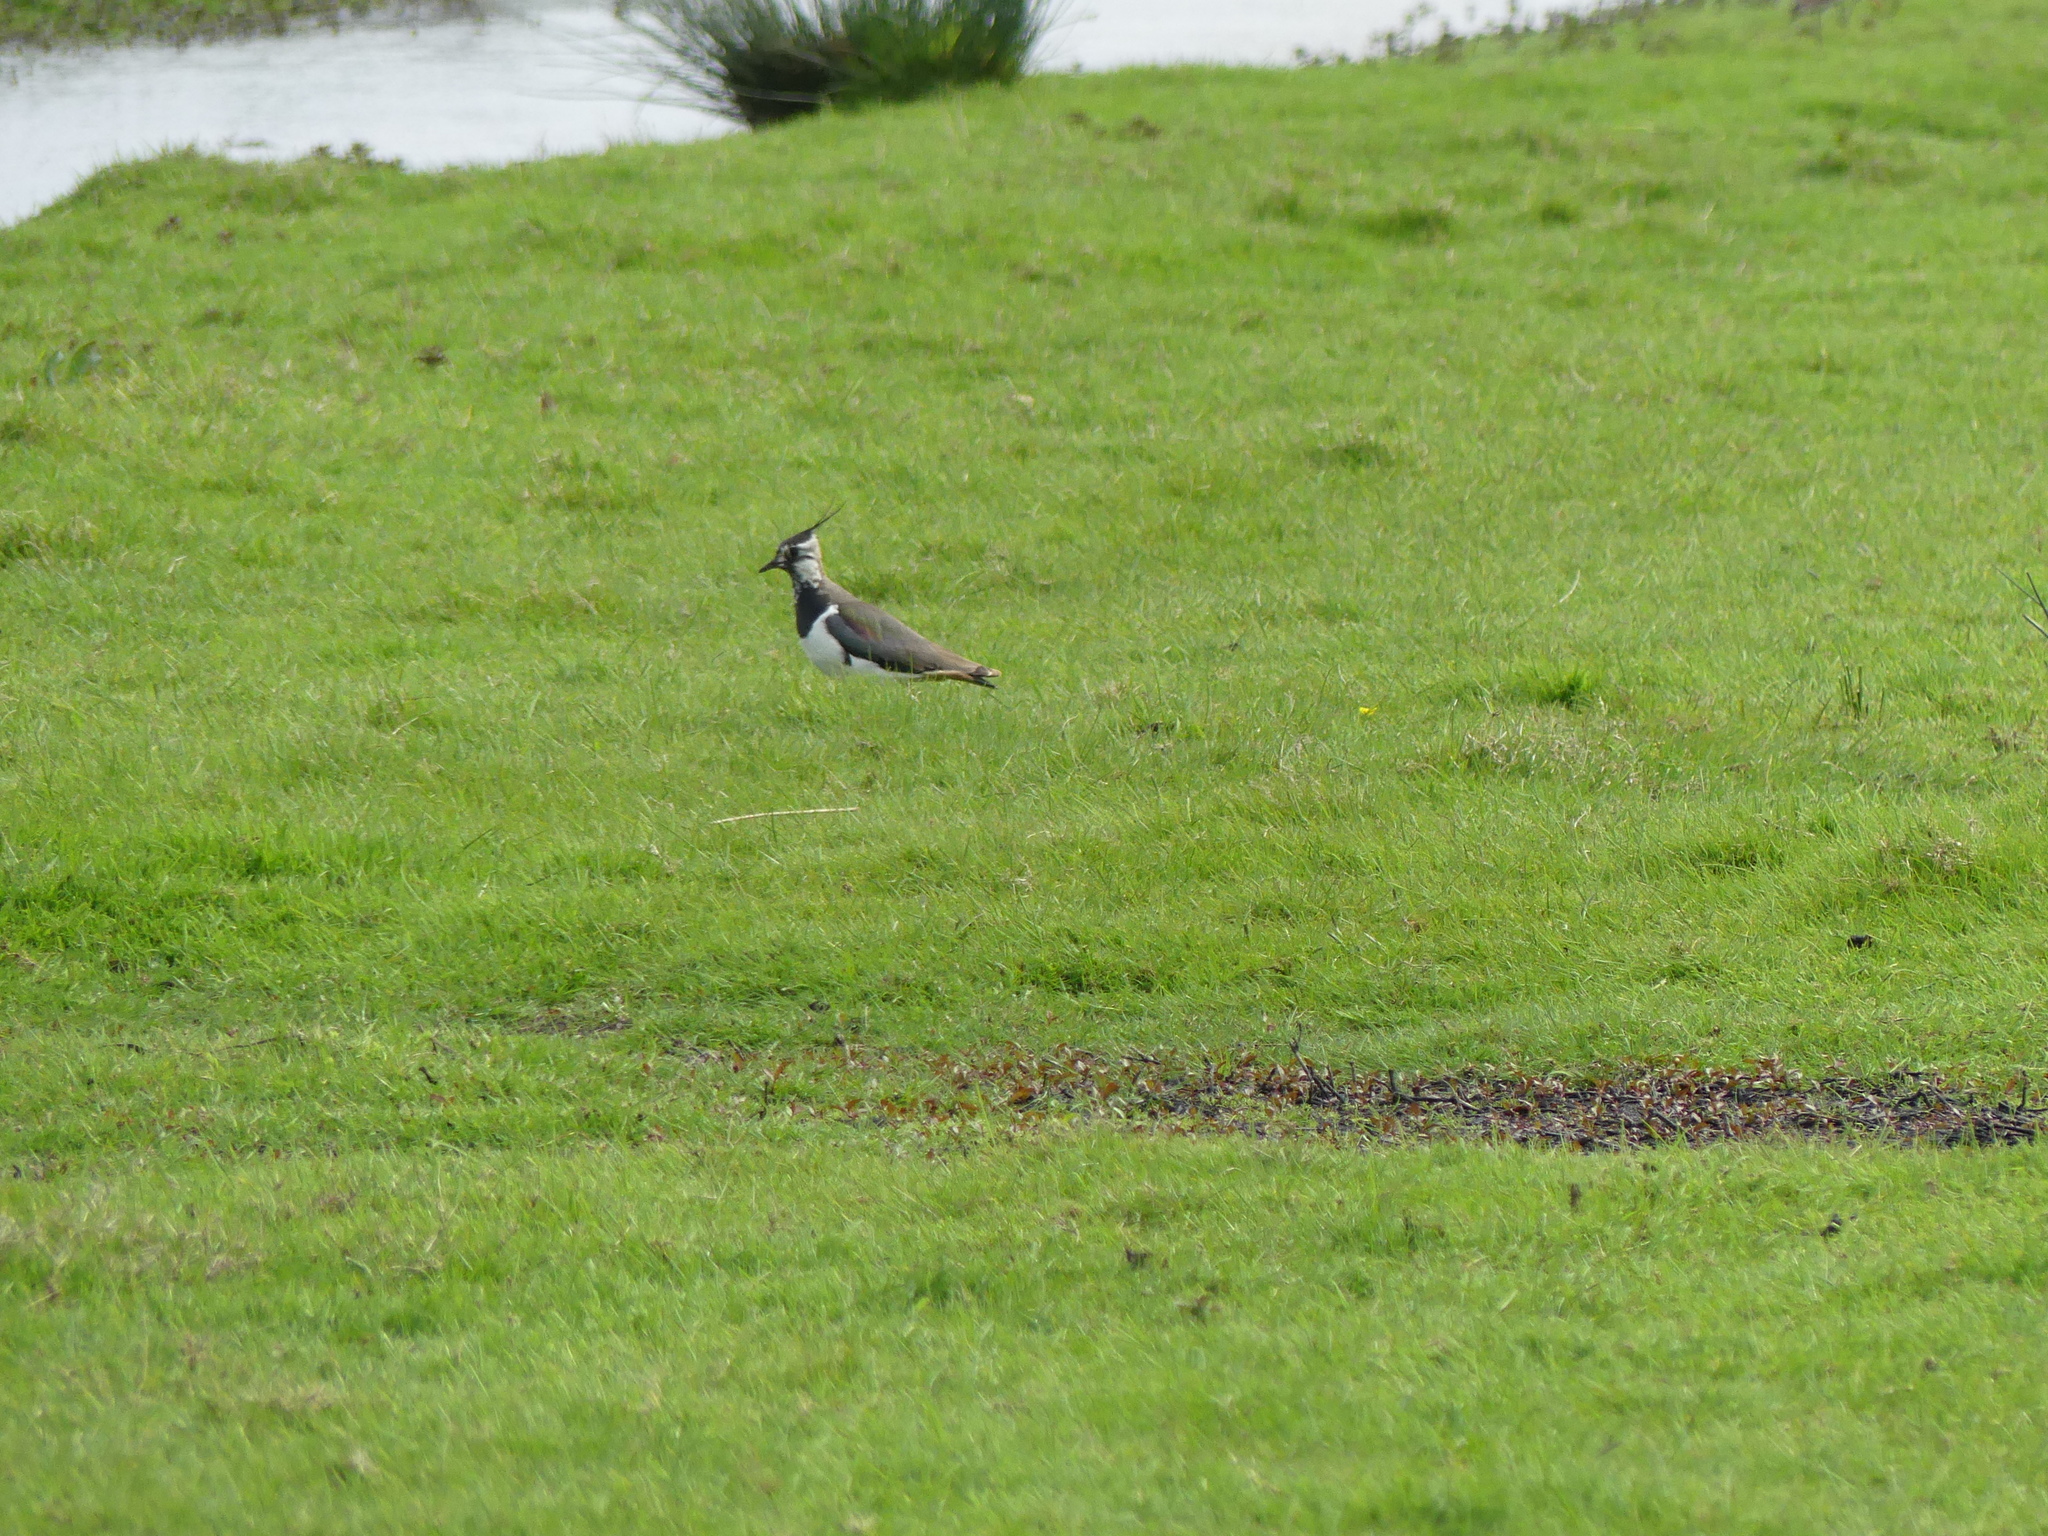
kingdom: Animalia
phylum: Chordata
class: Aves
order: Charadriiformes
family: Charadriidae
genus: Vanellus
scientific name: Vanellus vanellus
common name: Northern lapwing
